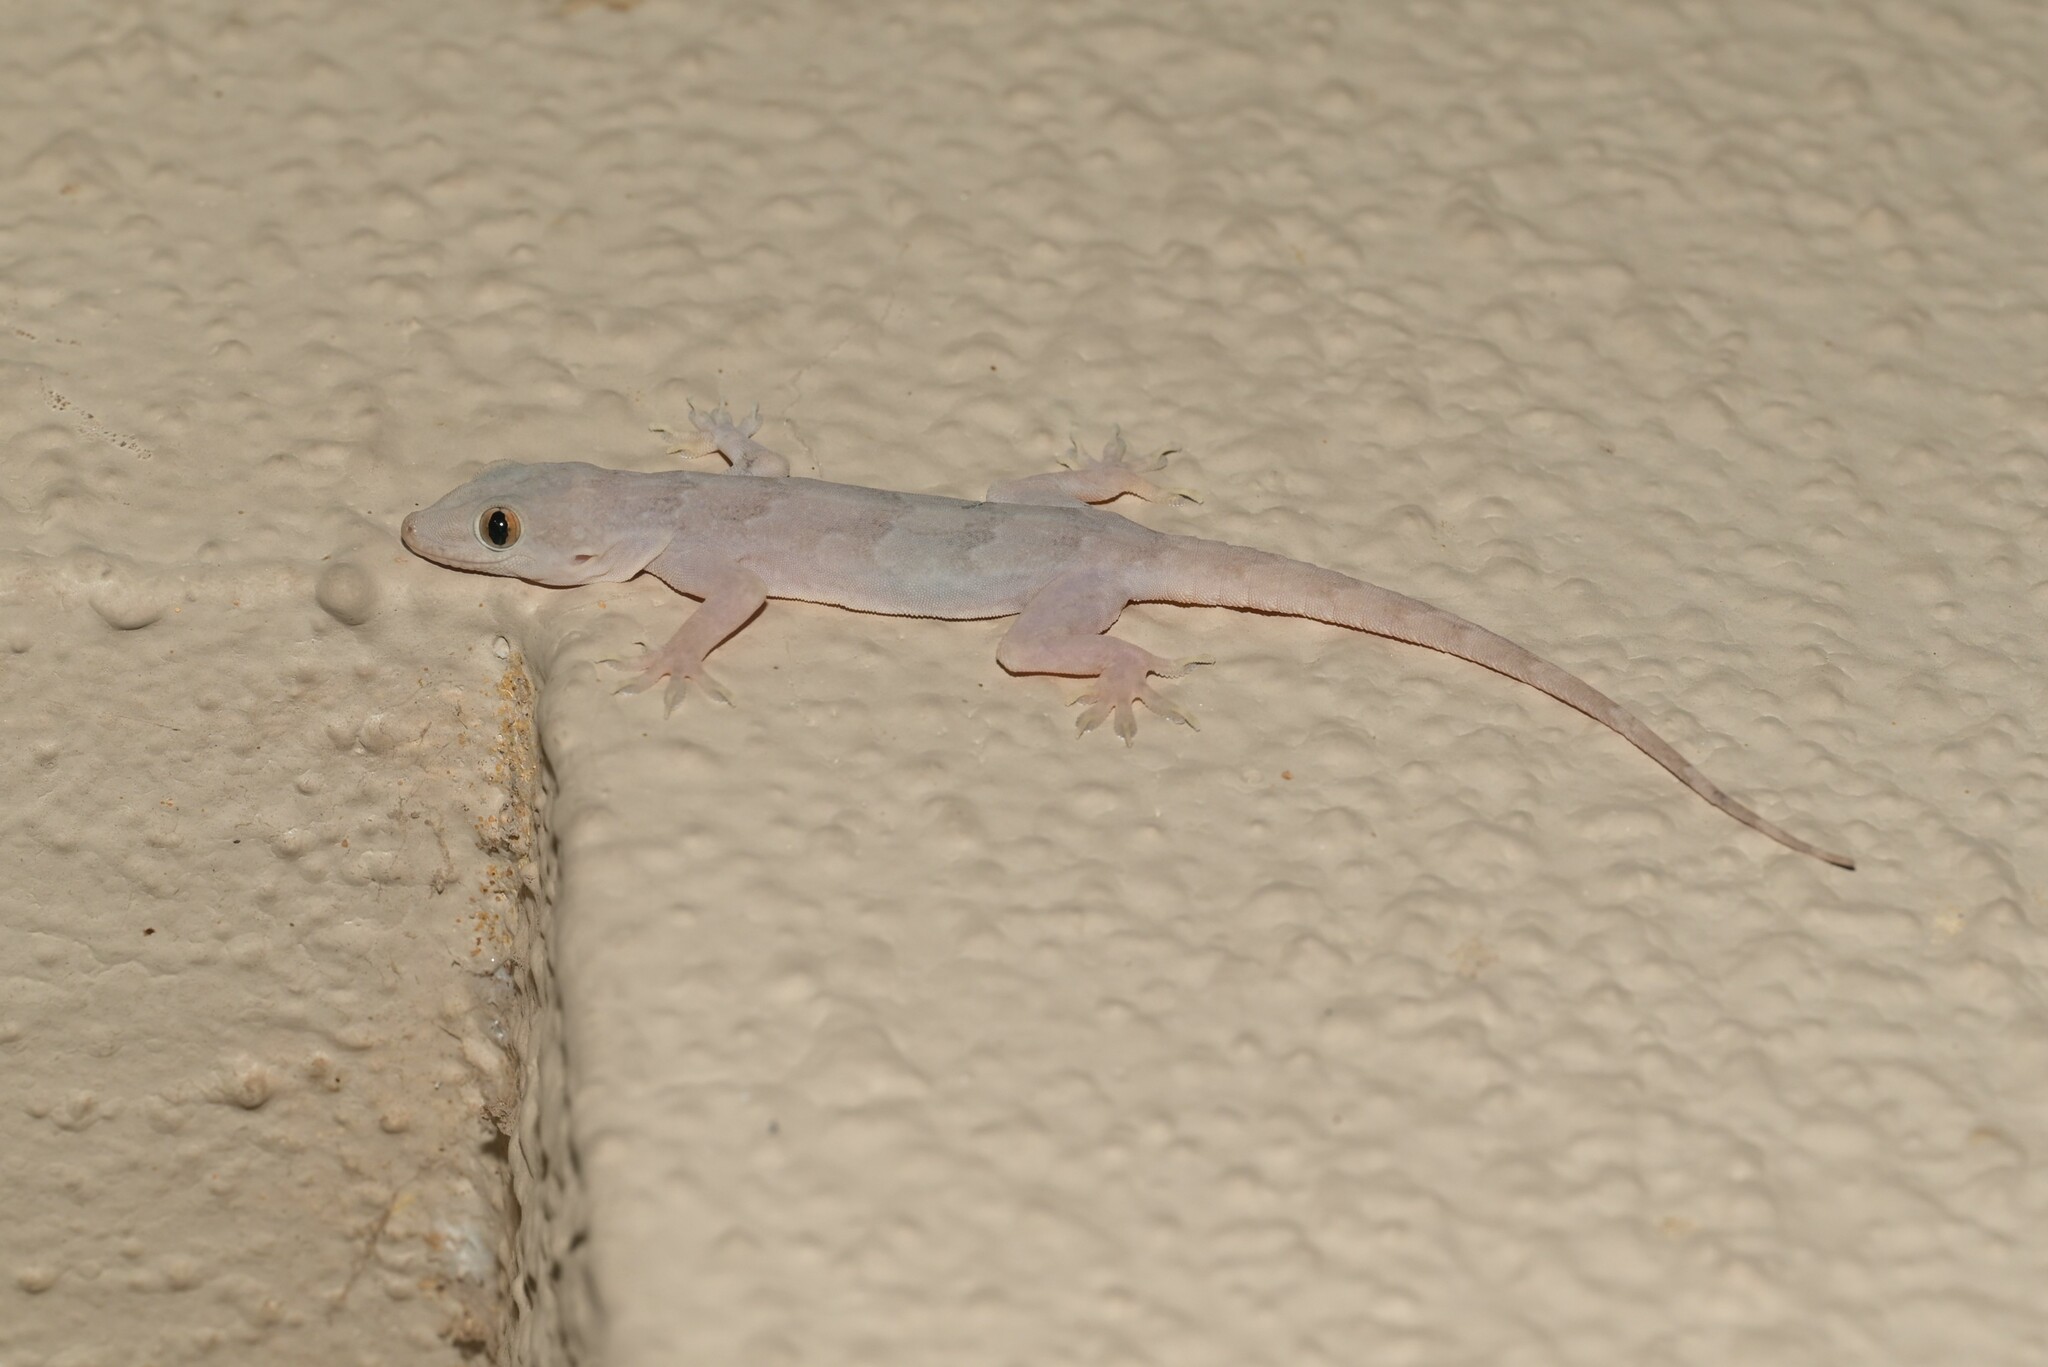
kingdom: Animalia
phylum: Chordata
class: Squamata
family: Gekkonidae
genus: Hemidactylus
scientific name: Hemidactylus flaviviridis
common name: Northern house gecko
